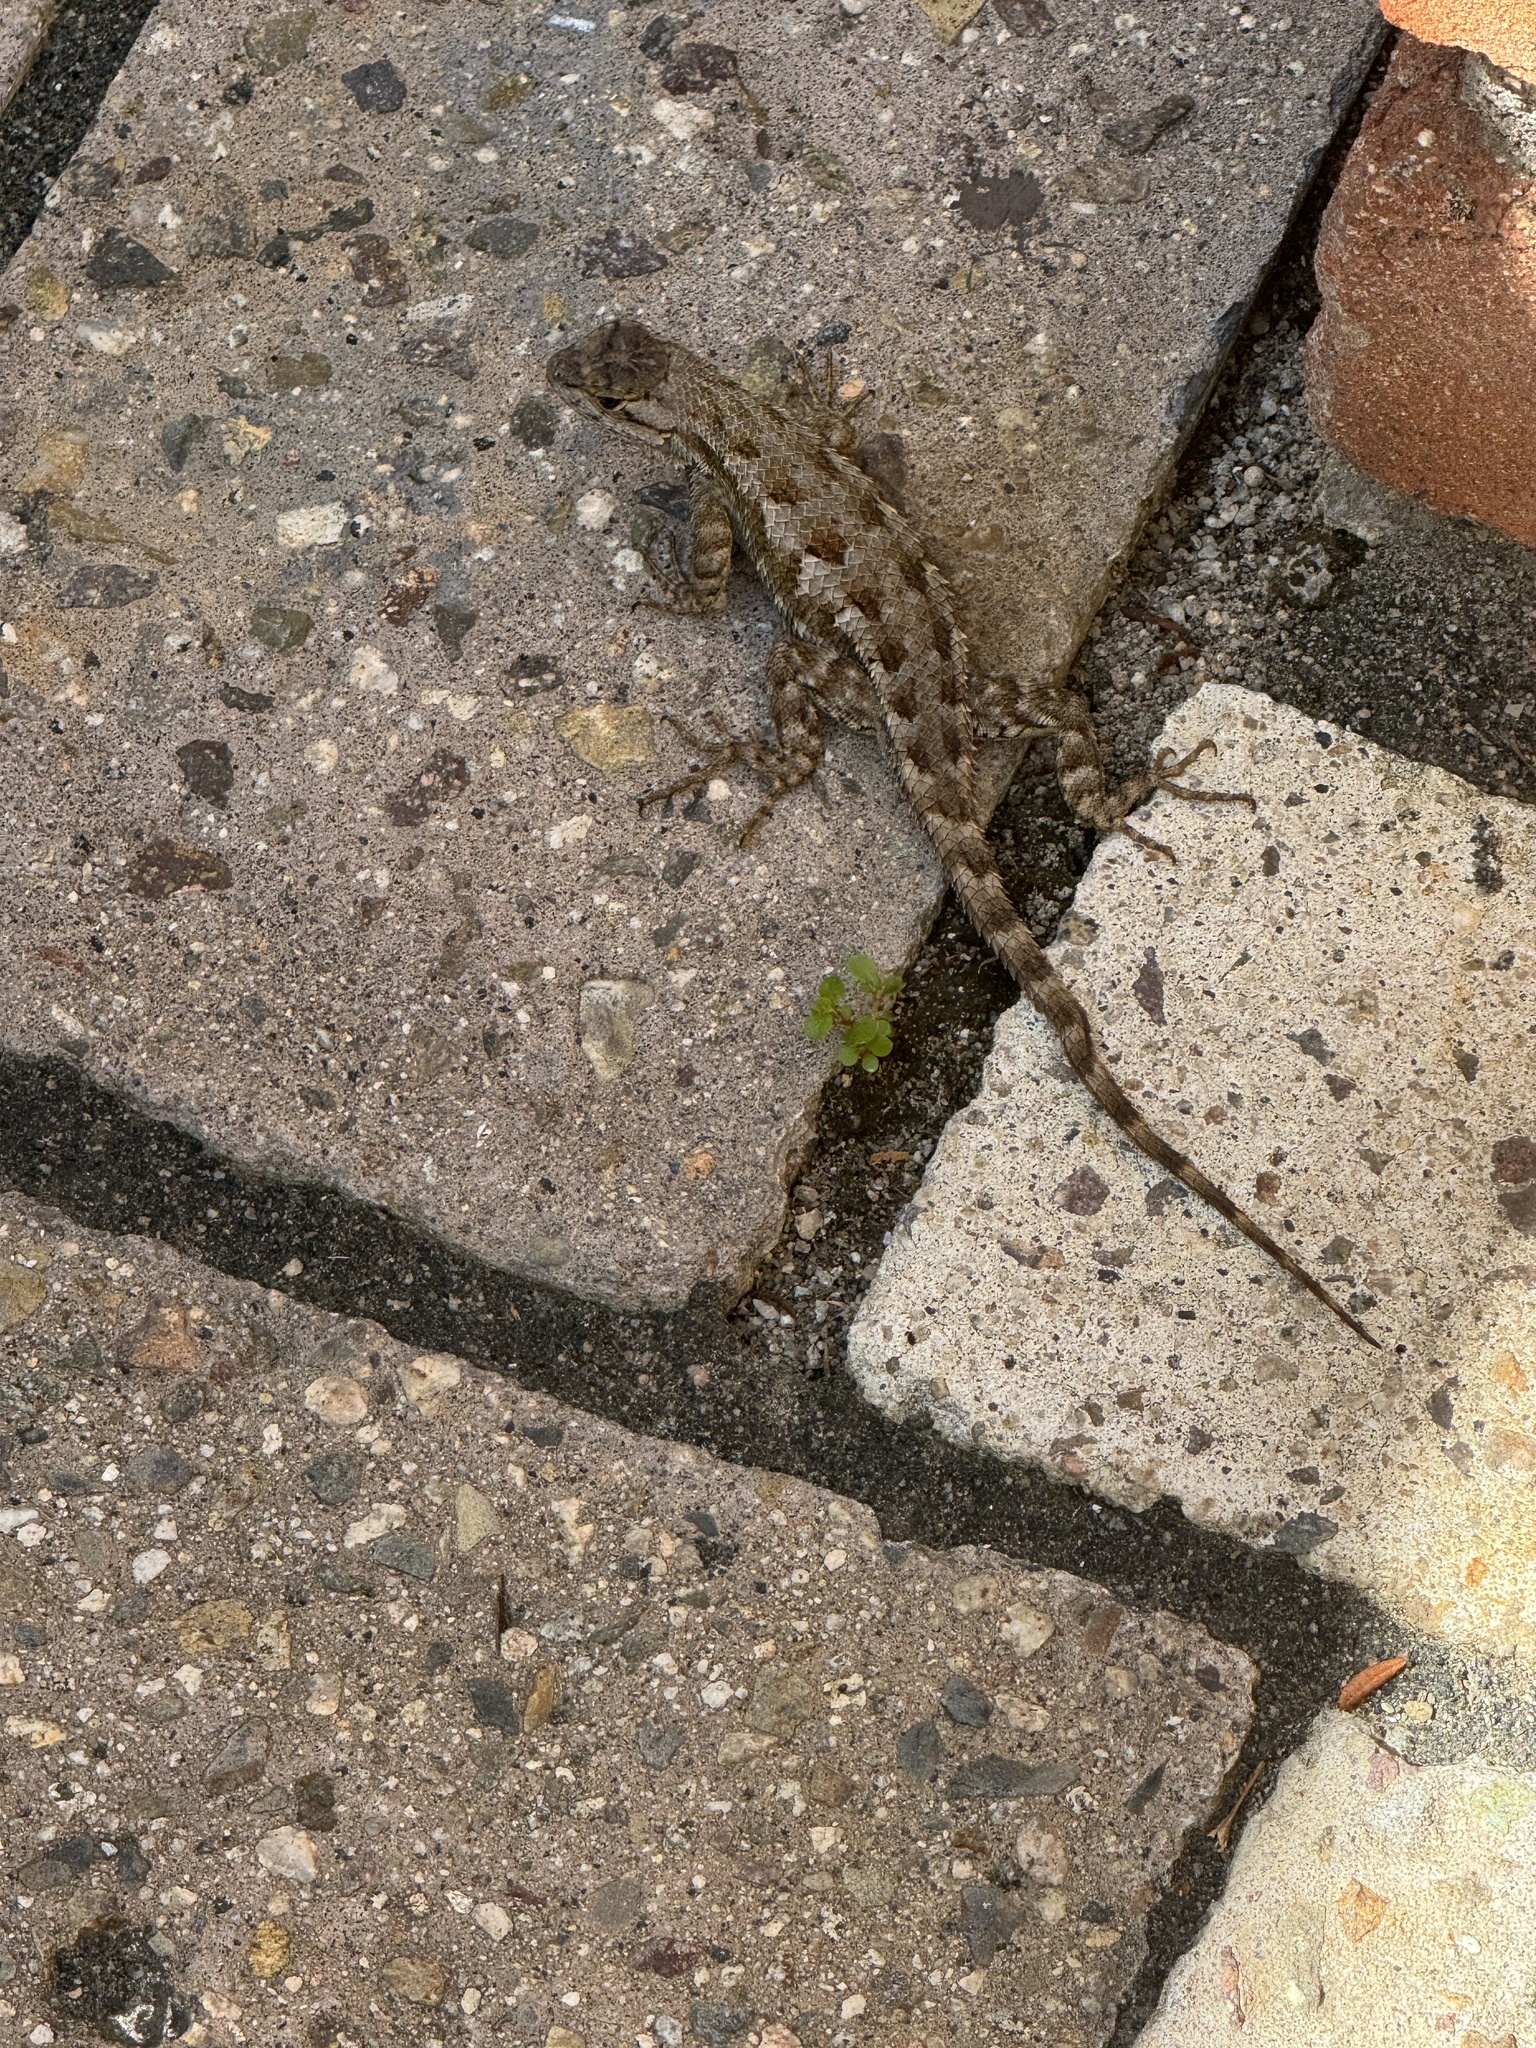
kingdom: Animalia
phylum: Chordata
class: Squamata
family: Phrynosomatidae
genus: Sceloporus
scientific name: Sceloporus occidentalis
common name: Western fence lizard
